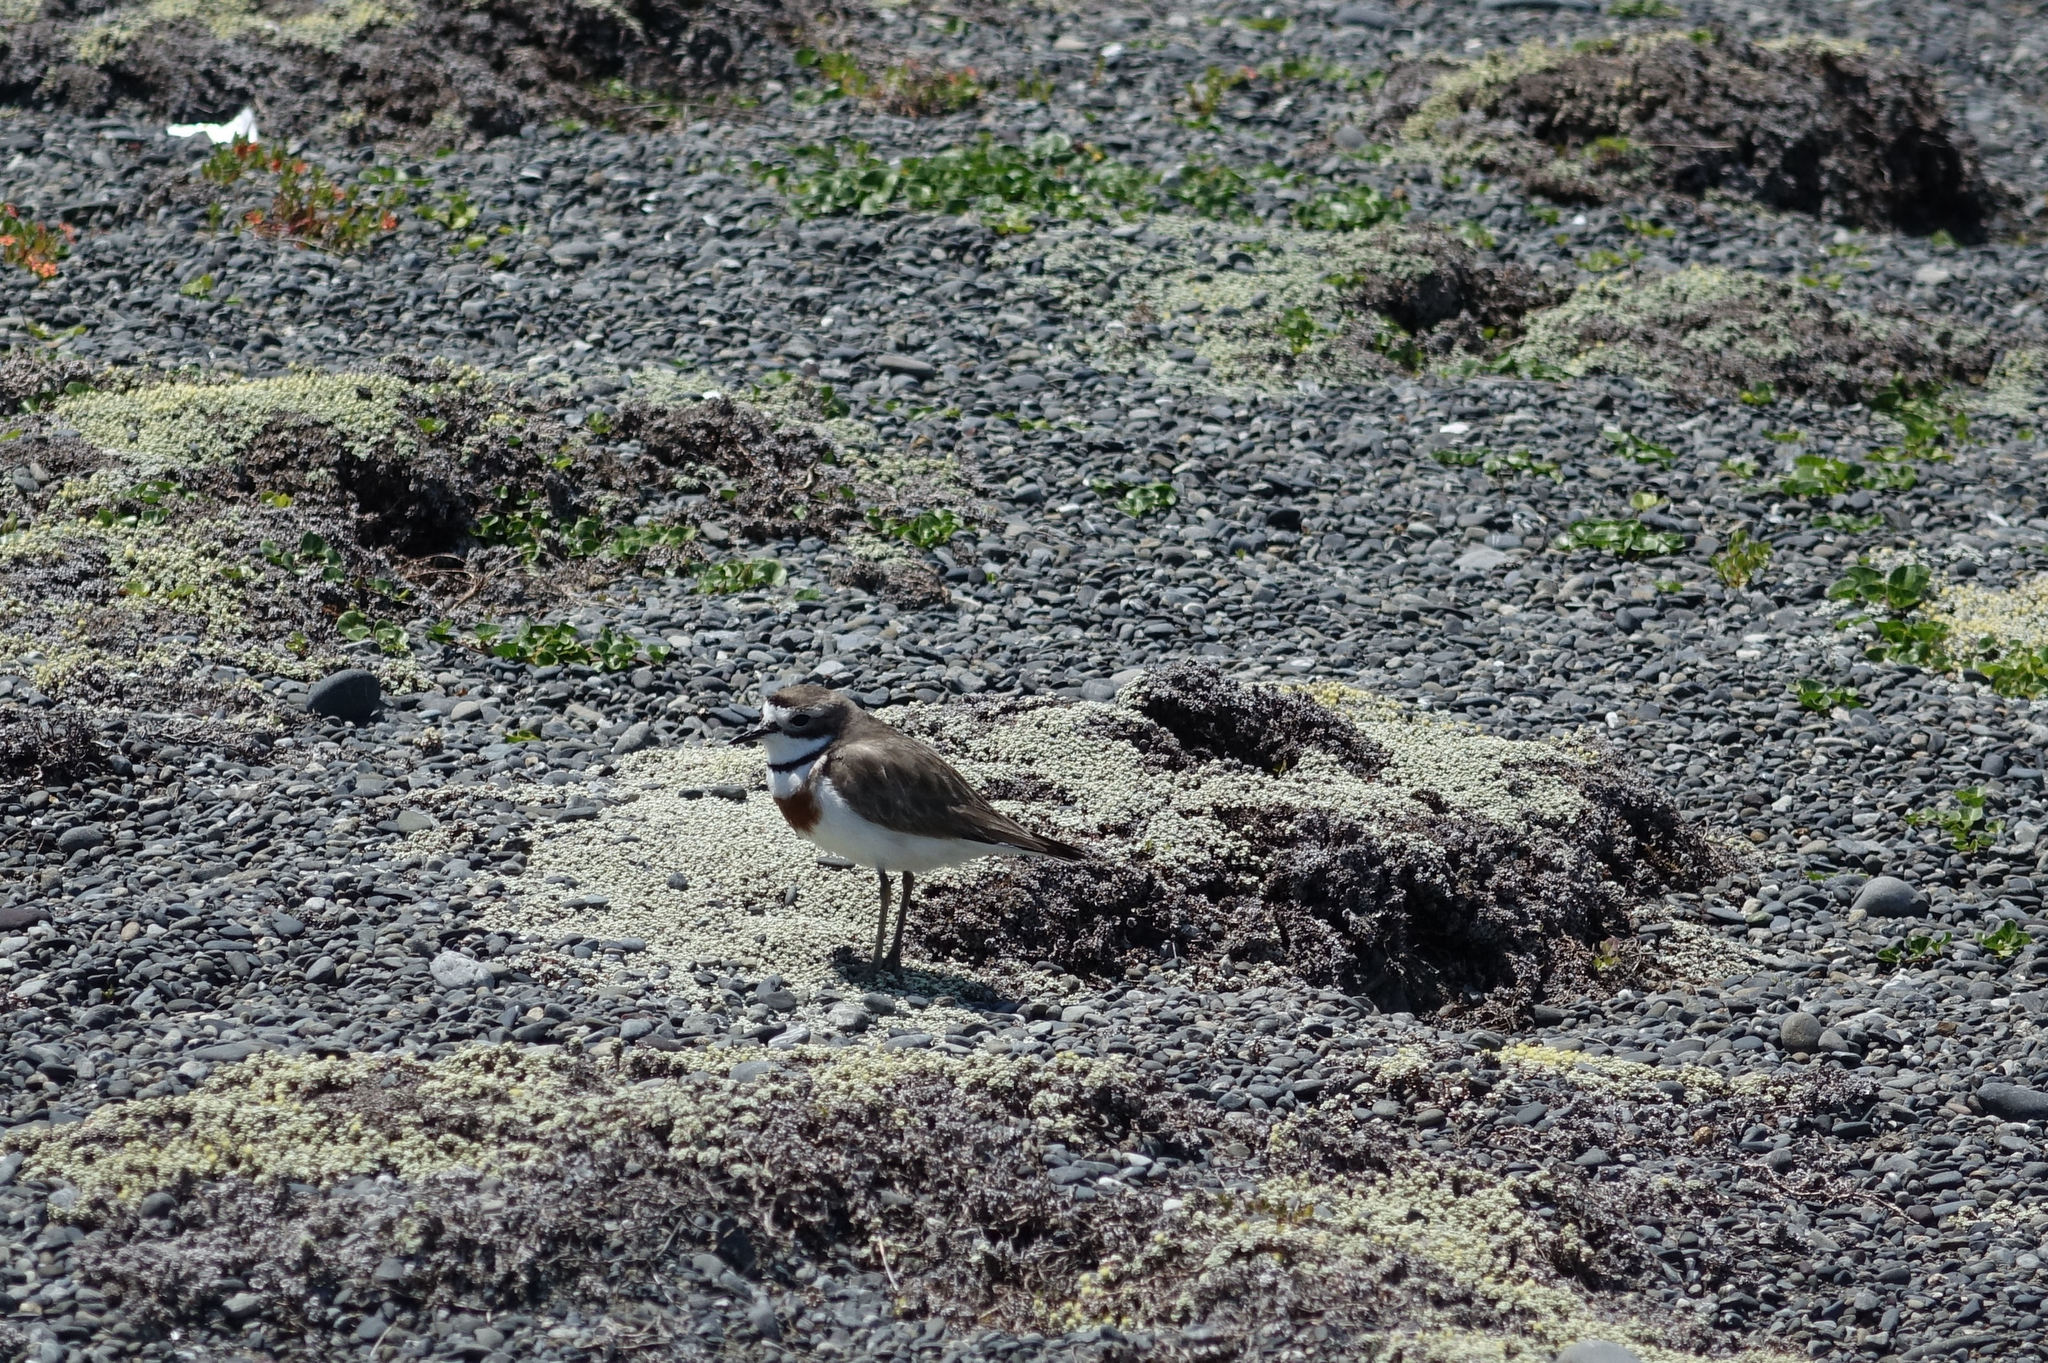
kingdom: Animalia
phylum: Chordata
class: Aves
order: Charadriiformes
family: Charadriidae
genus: Anarhynchus
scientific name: Anarhynchus
